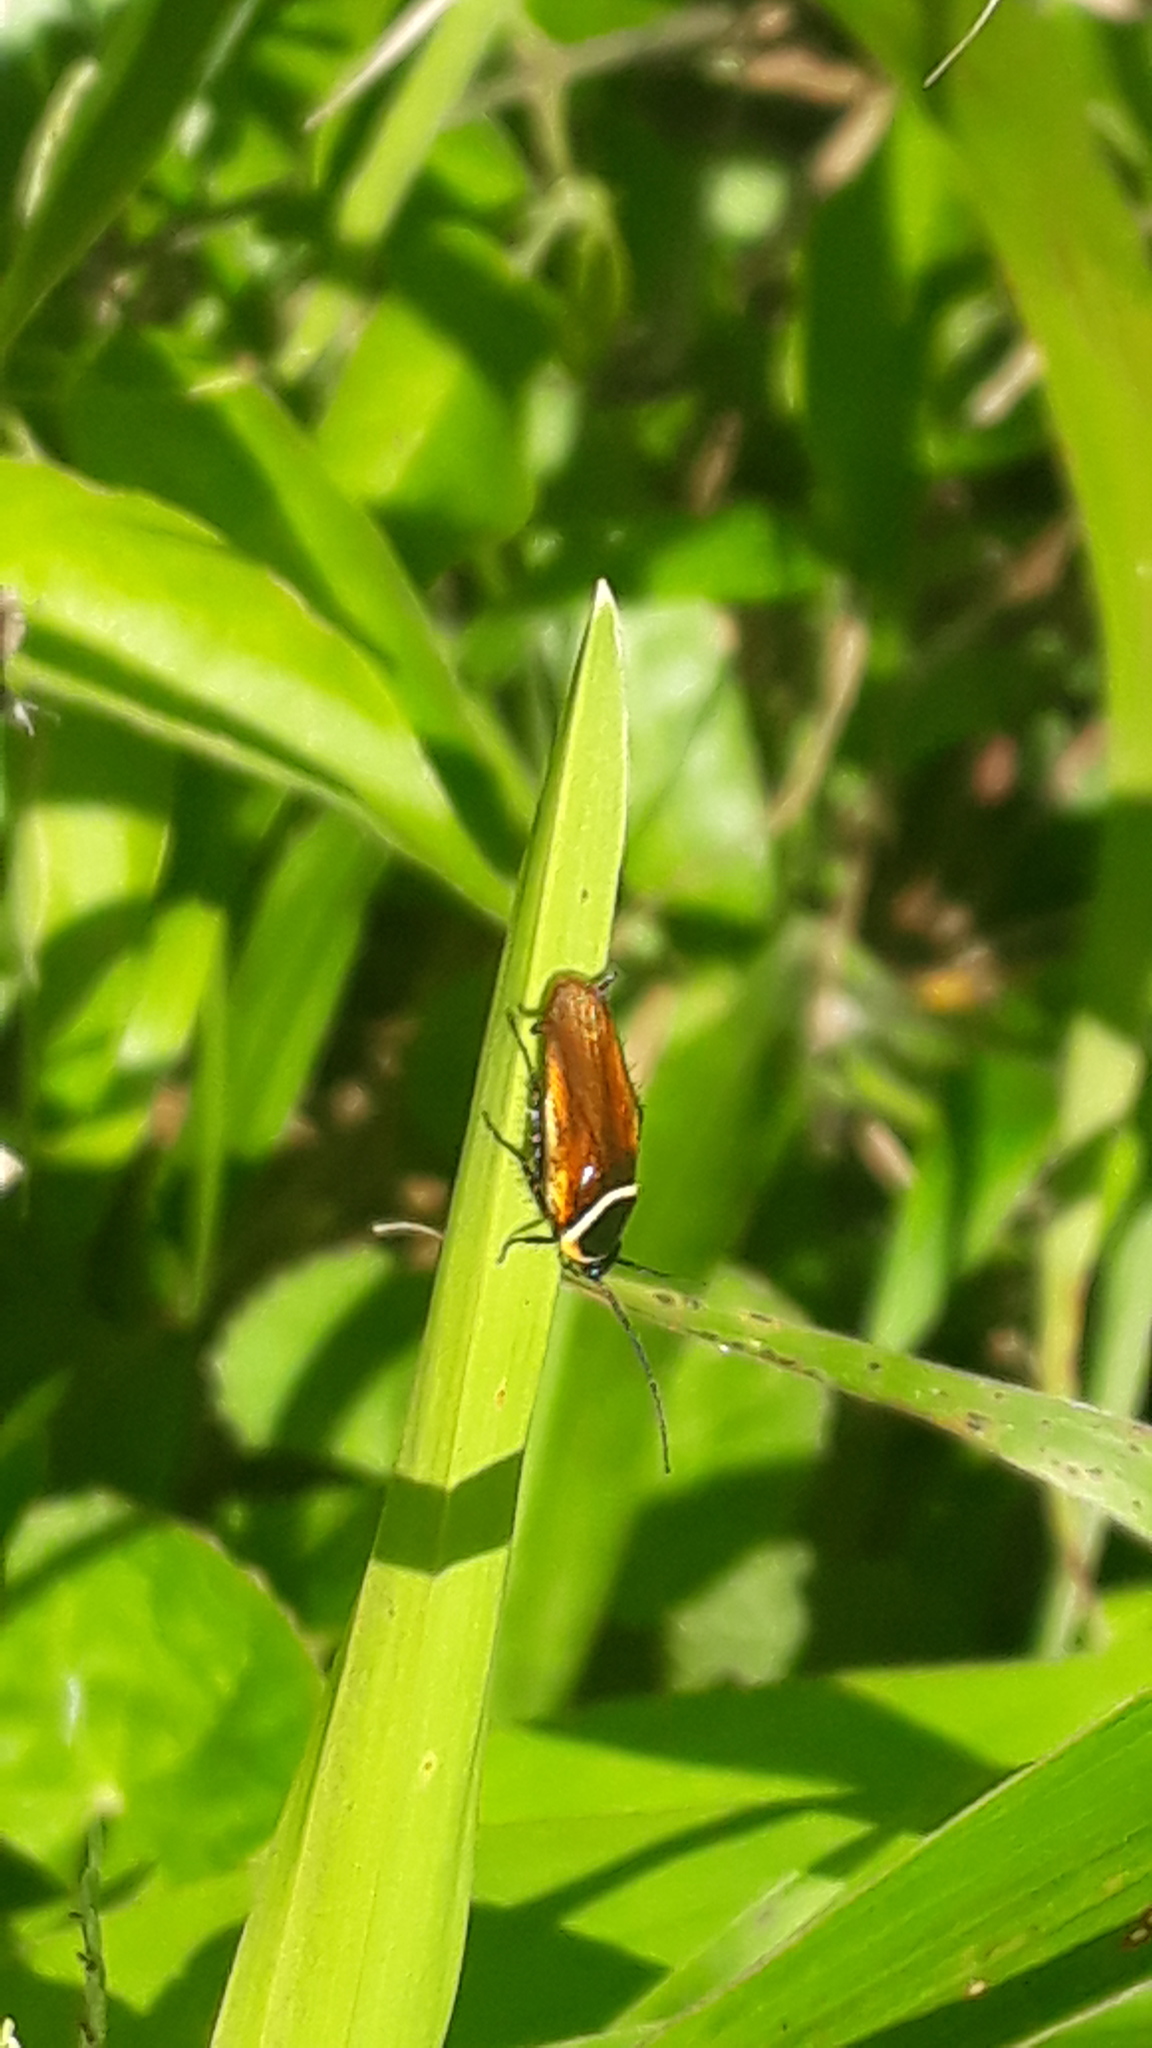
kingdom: Animalia
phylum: Arthropoda
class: Insecta
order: Blattodea
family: Ectobiidae
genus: Pseudomops
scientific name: Pseudomops neglectus
